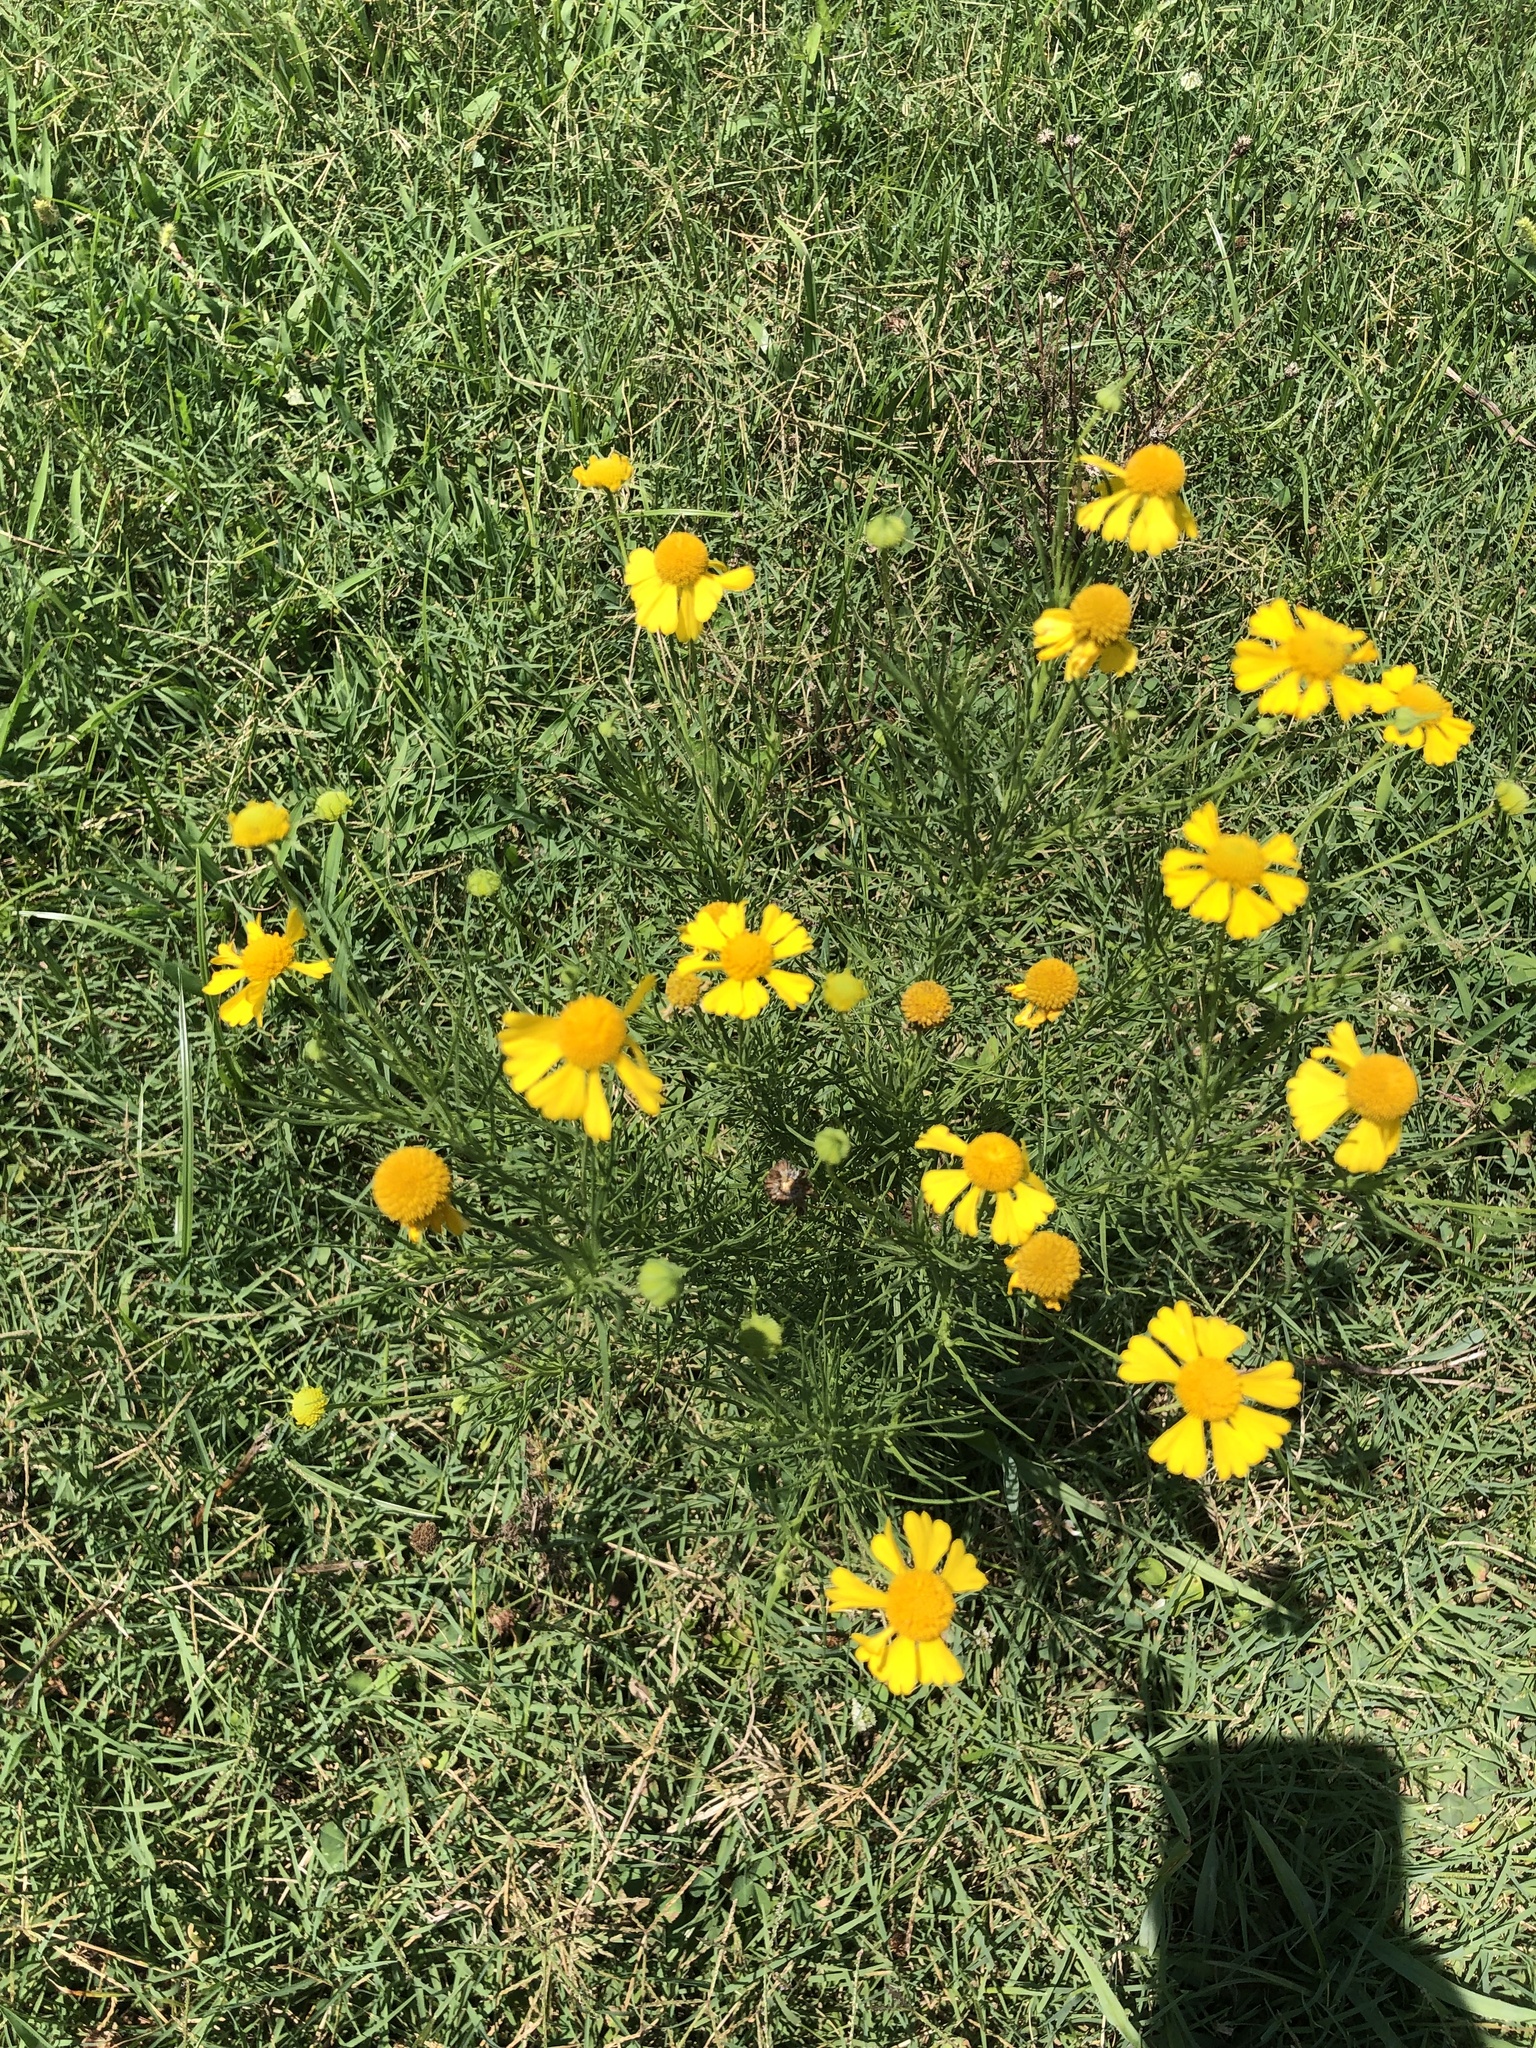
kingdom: Plantae
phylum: Tracheophyta
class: Magnoliopsida
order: Asterales
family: Asteraceae
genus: Helenium
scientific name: Helenium amarum
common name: Bitter sneezeweed
